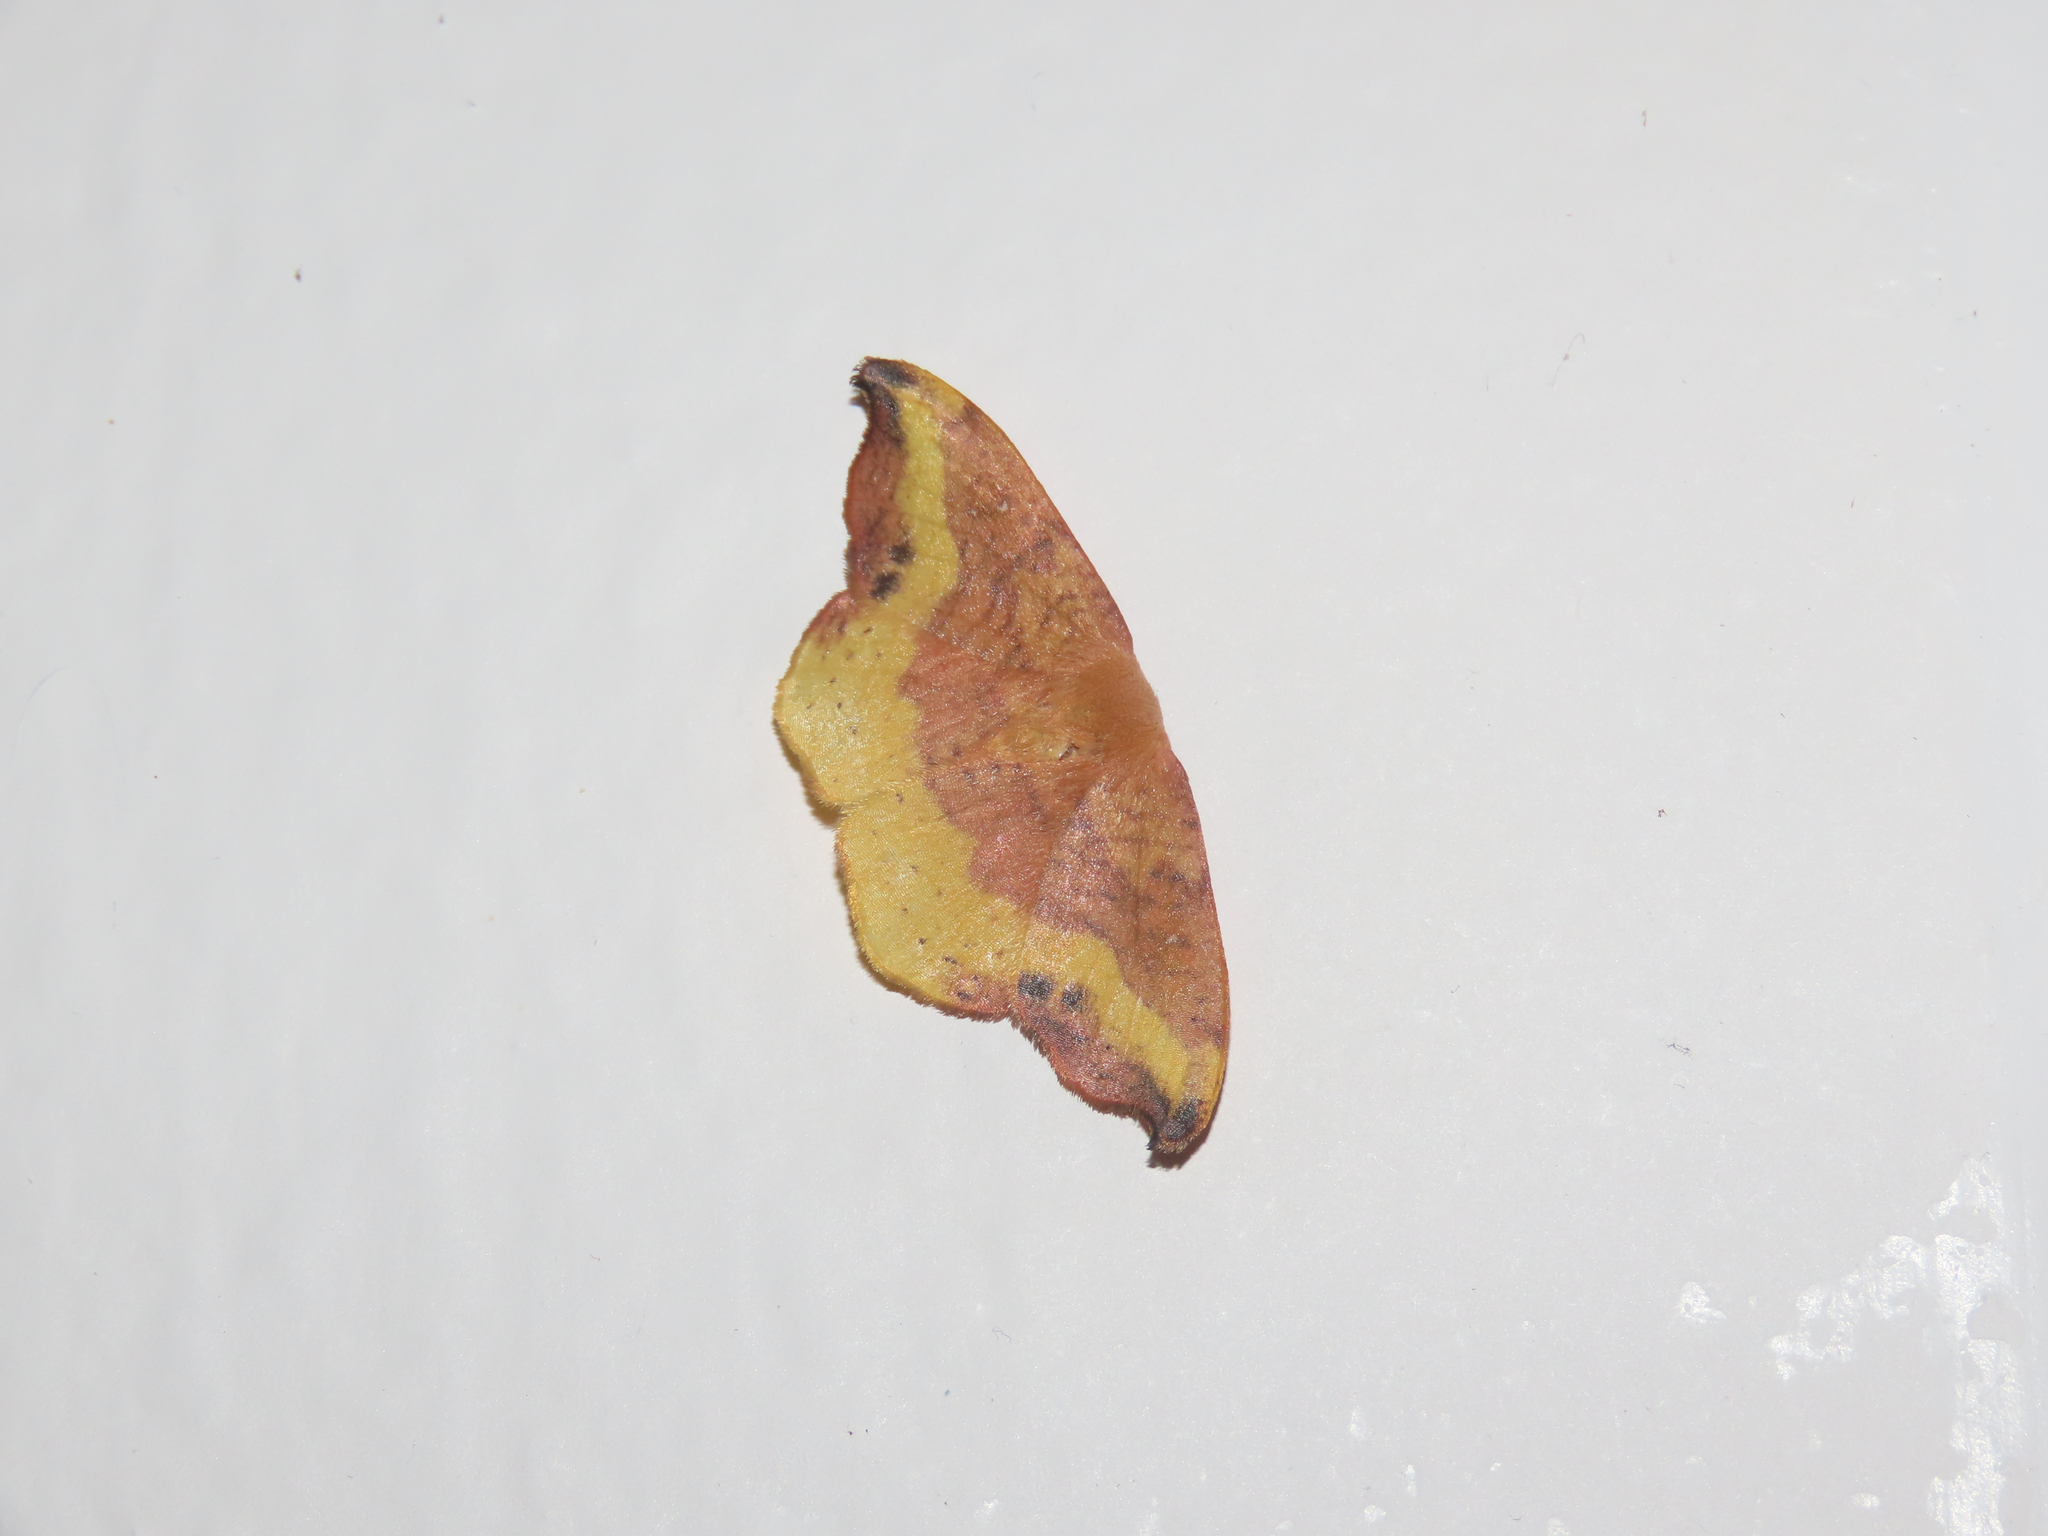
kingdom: Animalia
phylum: Arthropoda
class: Insecta
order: Lepidoptera
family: Drepanidae
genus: Oreta
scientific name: Oreta rosea
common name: Rose hooktip
